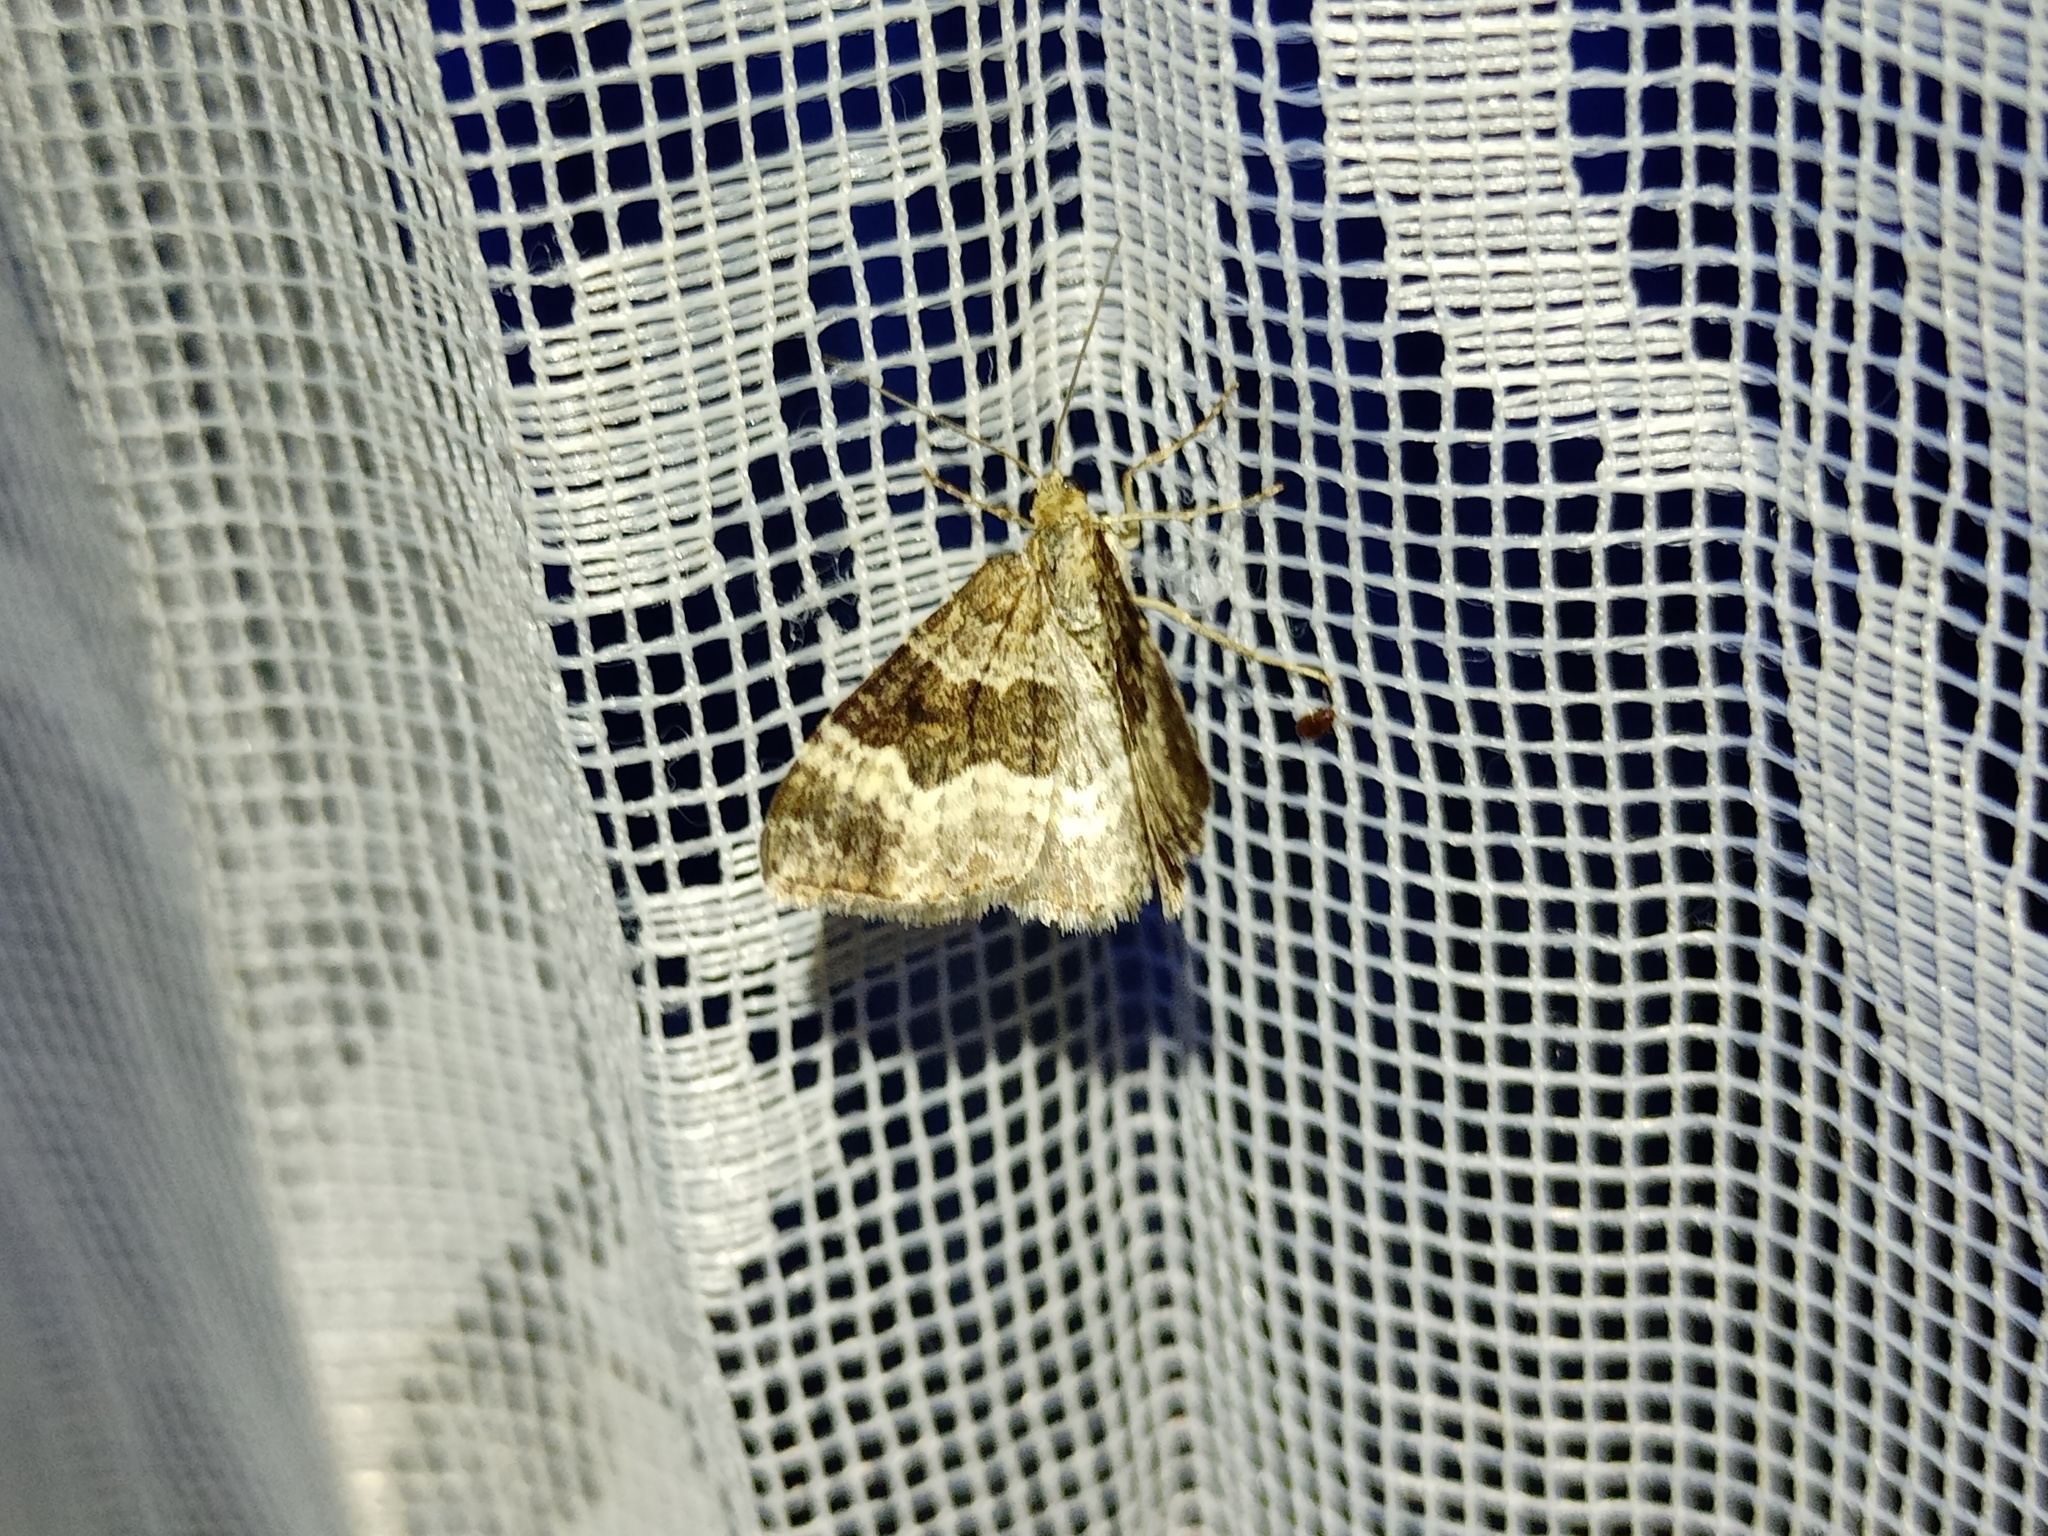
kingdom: Animalia
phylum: Arthropoda
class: Insecta
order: Lepidoptera
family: Geometridae
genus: Epirrhoe
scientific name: Epirrhoe alternata
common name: Common carpet
